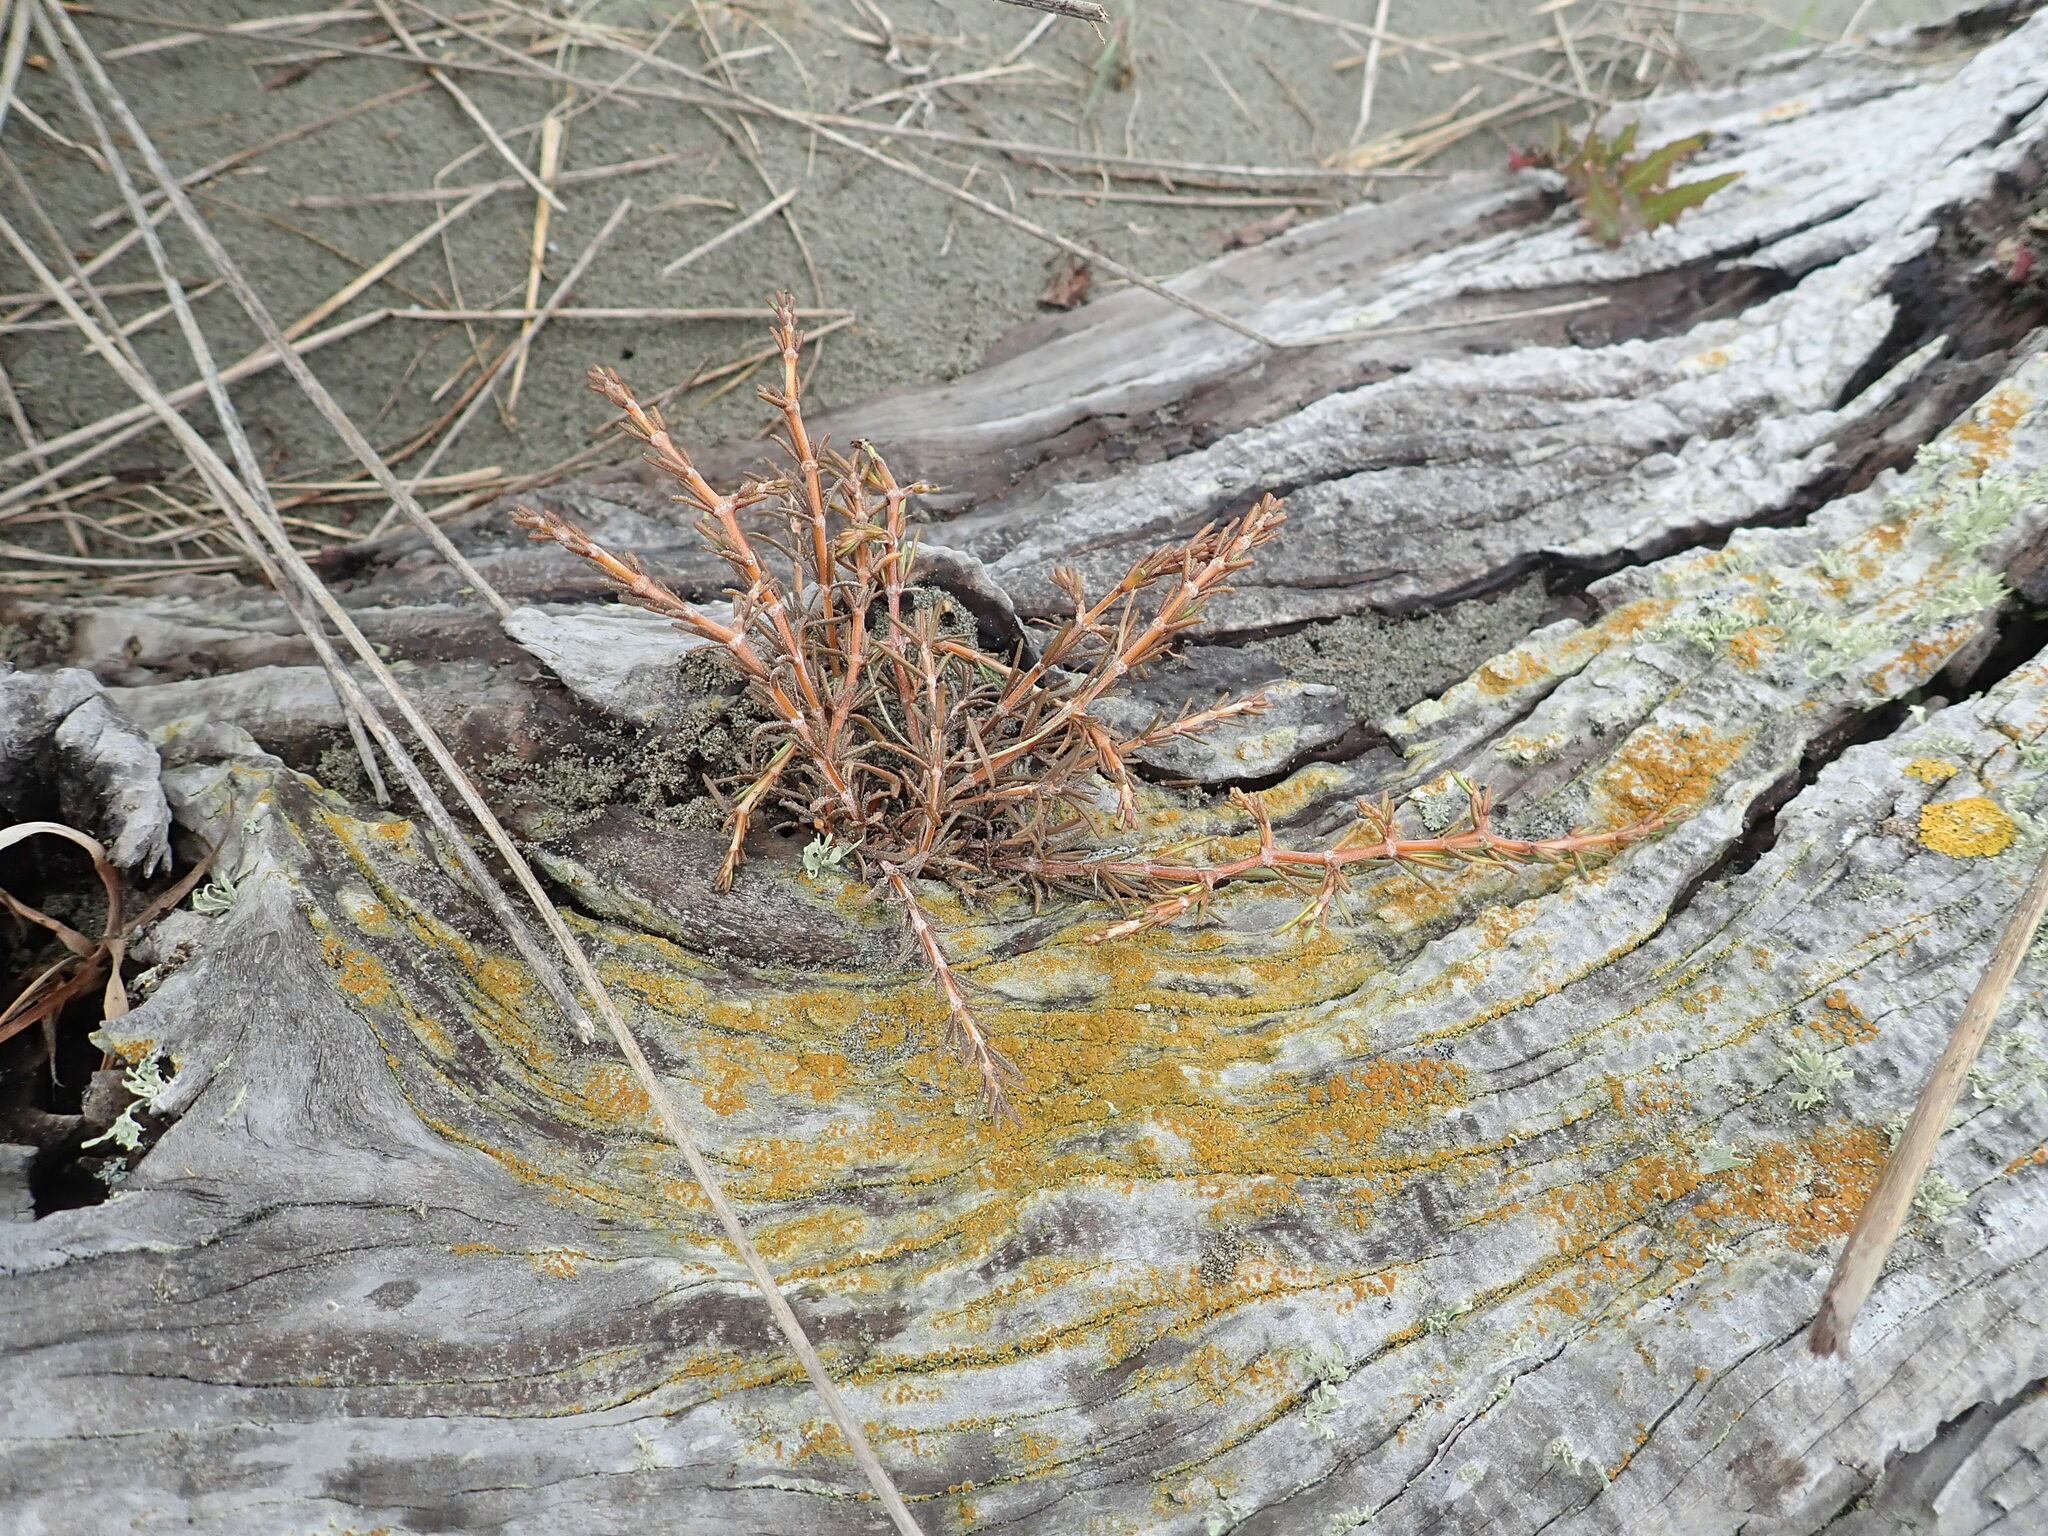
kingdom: Plantae
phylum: Tracheophyta
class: Magnoliopsida
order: Gentianales
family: Rubiaceae
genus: Coprosma
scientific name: Coprosma acerosa
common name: Sand coprosma
